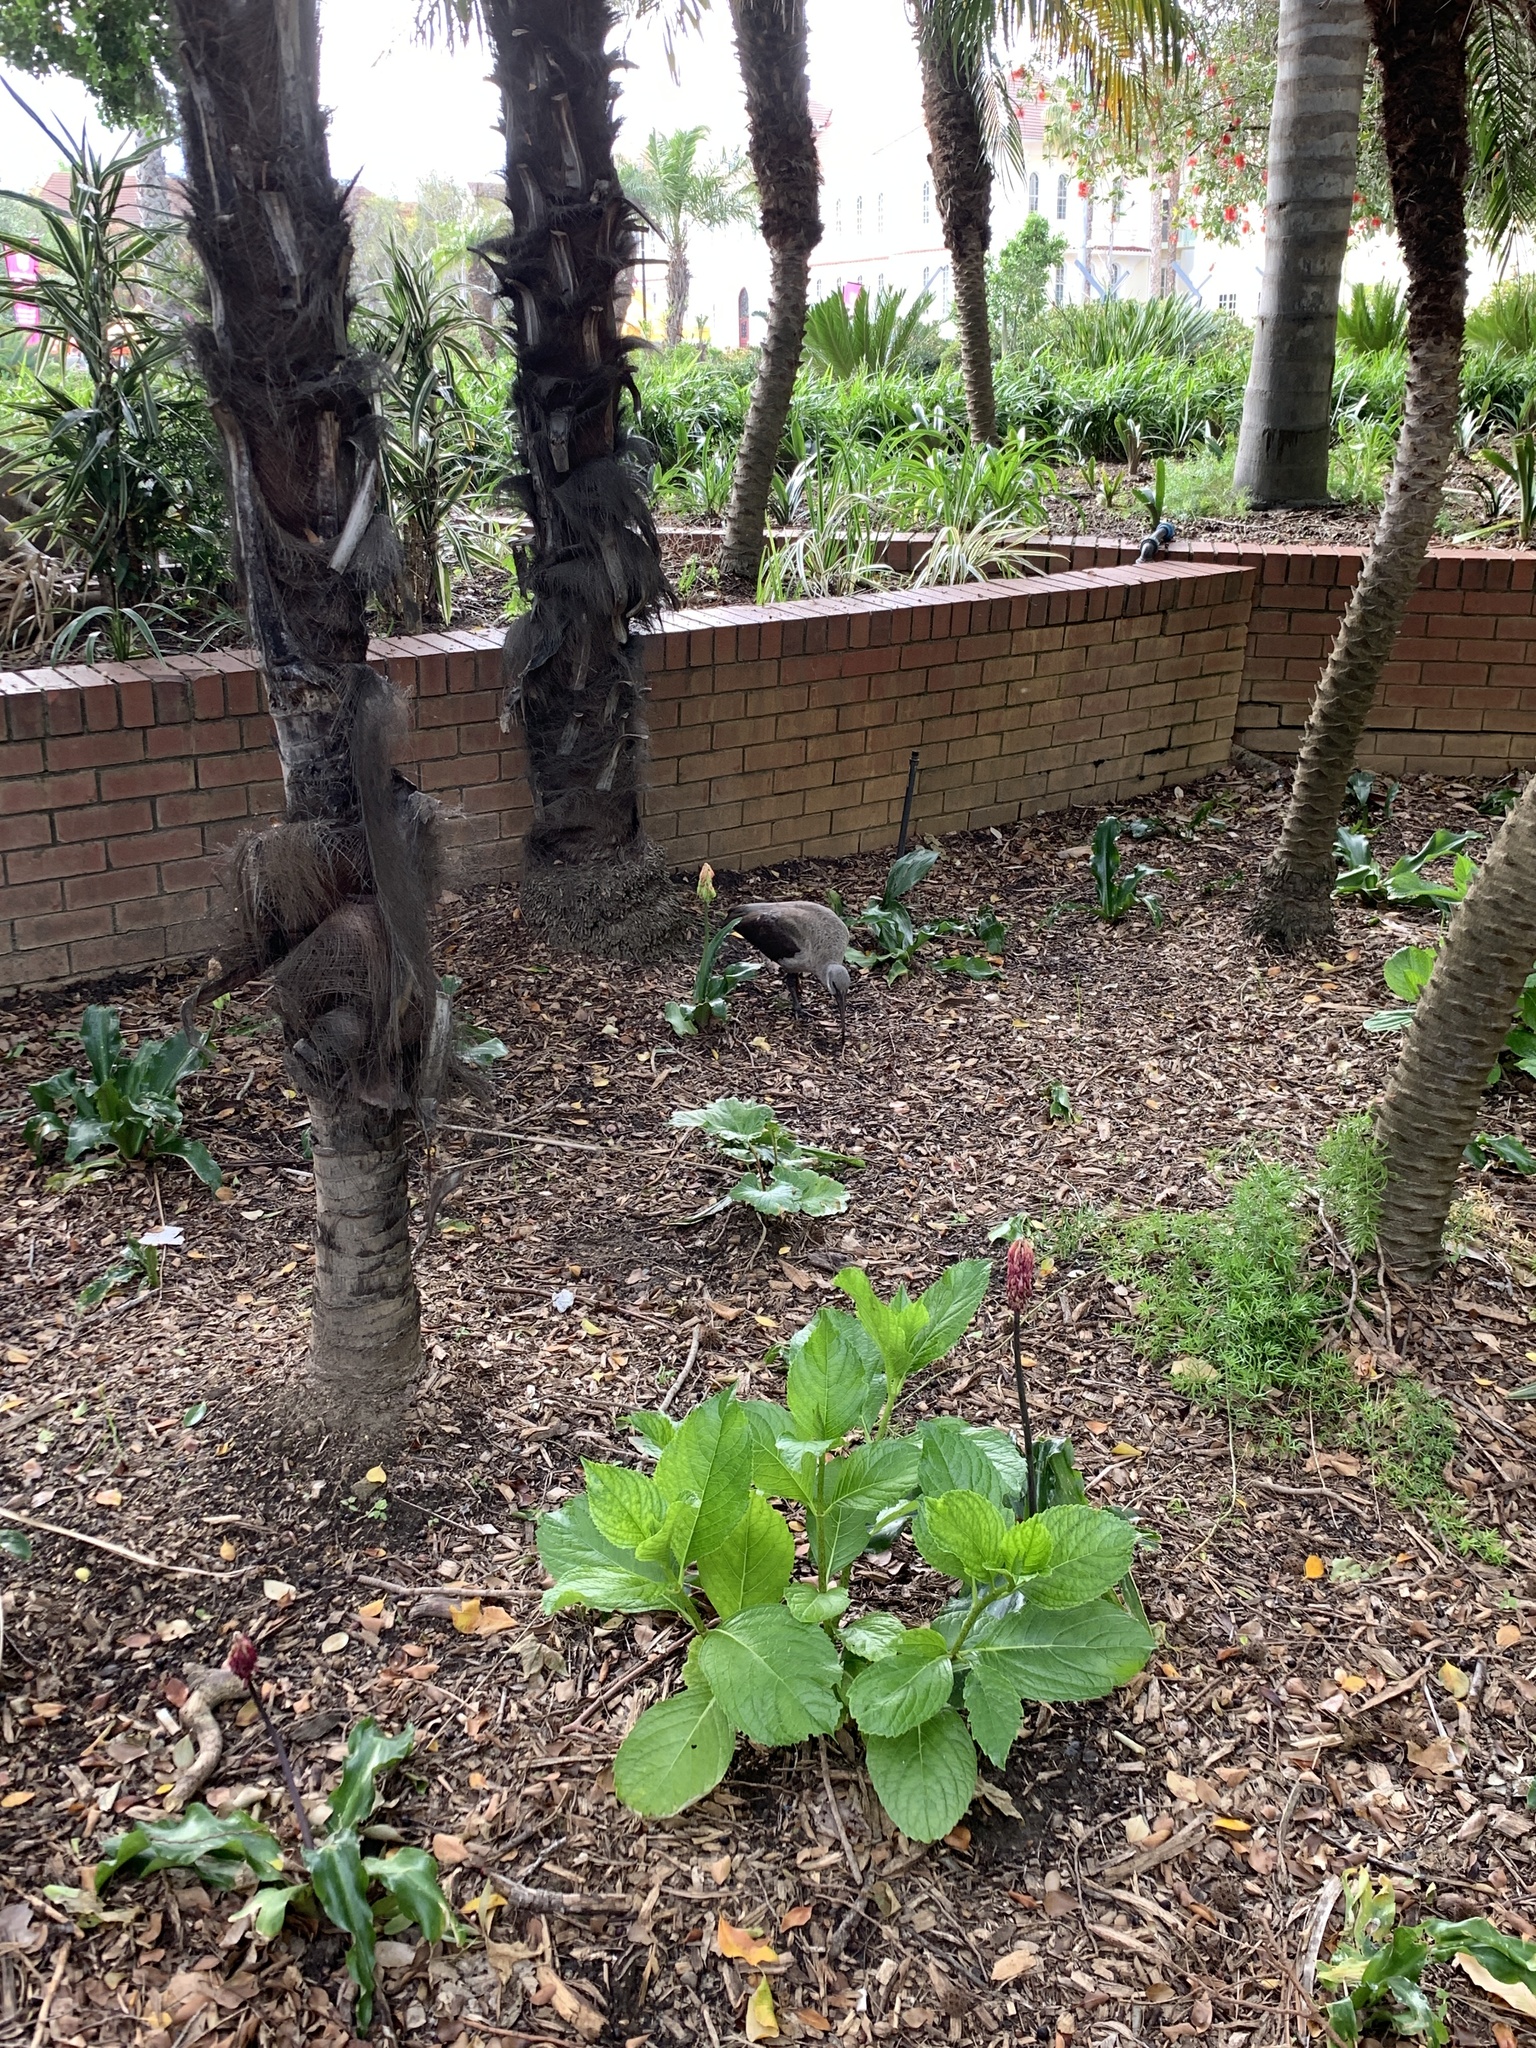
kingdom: Animalia
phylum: Chordata
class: Aves
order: Pelecaniformes
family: Threskiornithidae
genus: Bostrychia
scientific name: Bostrychia hagedash
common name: Hadada ibis
